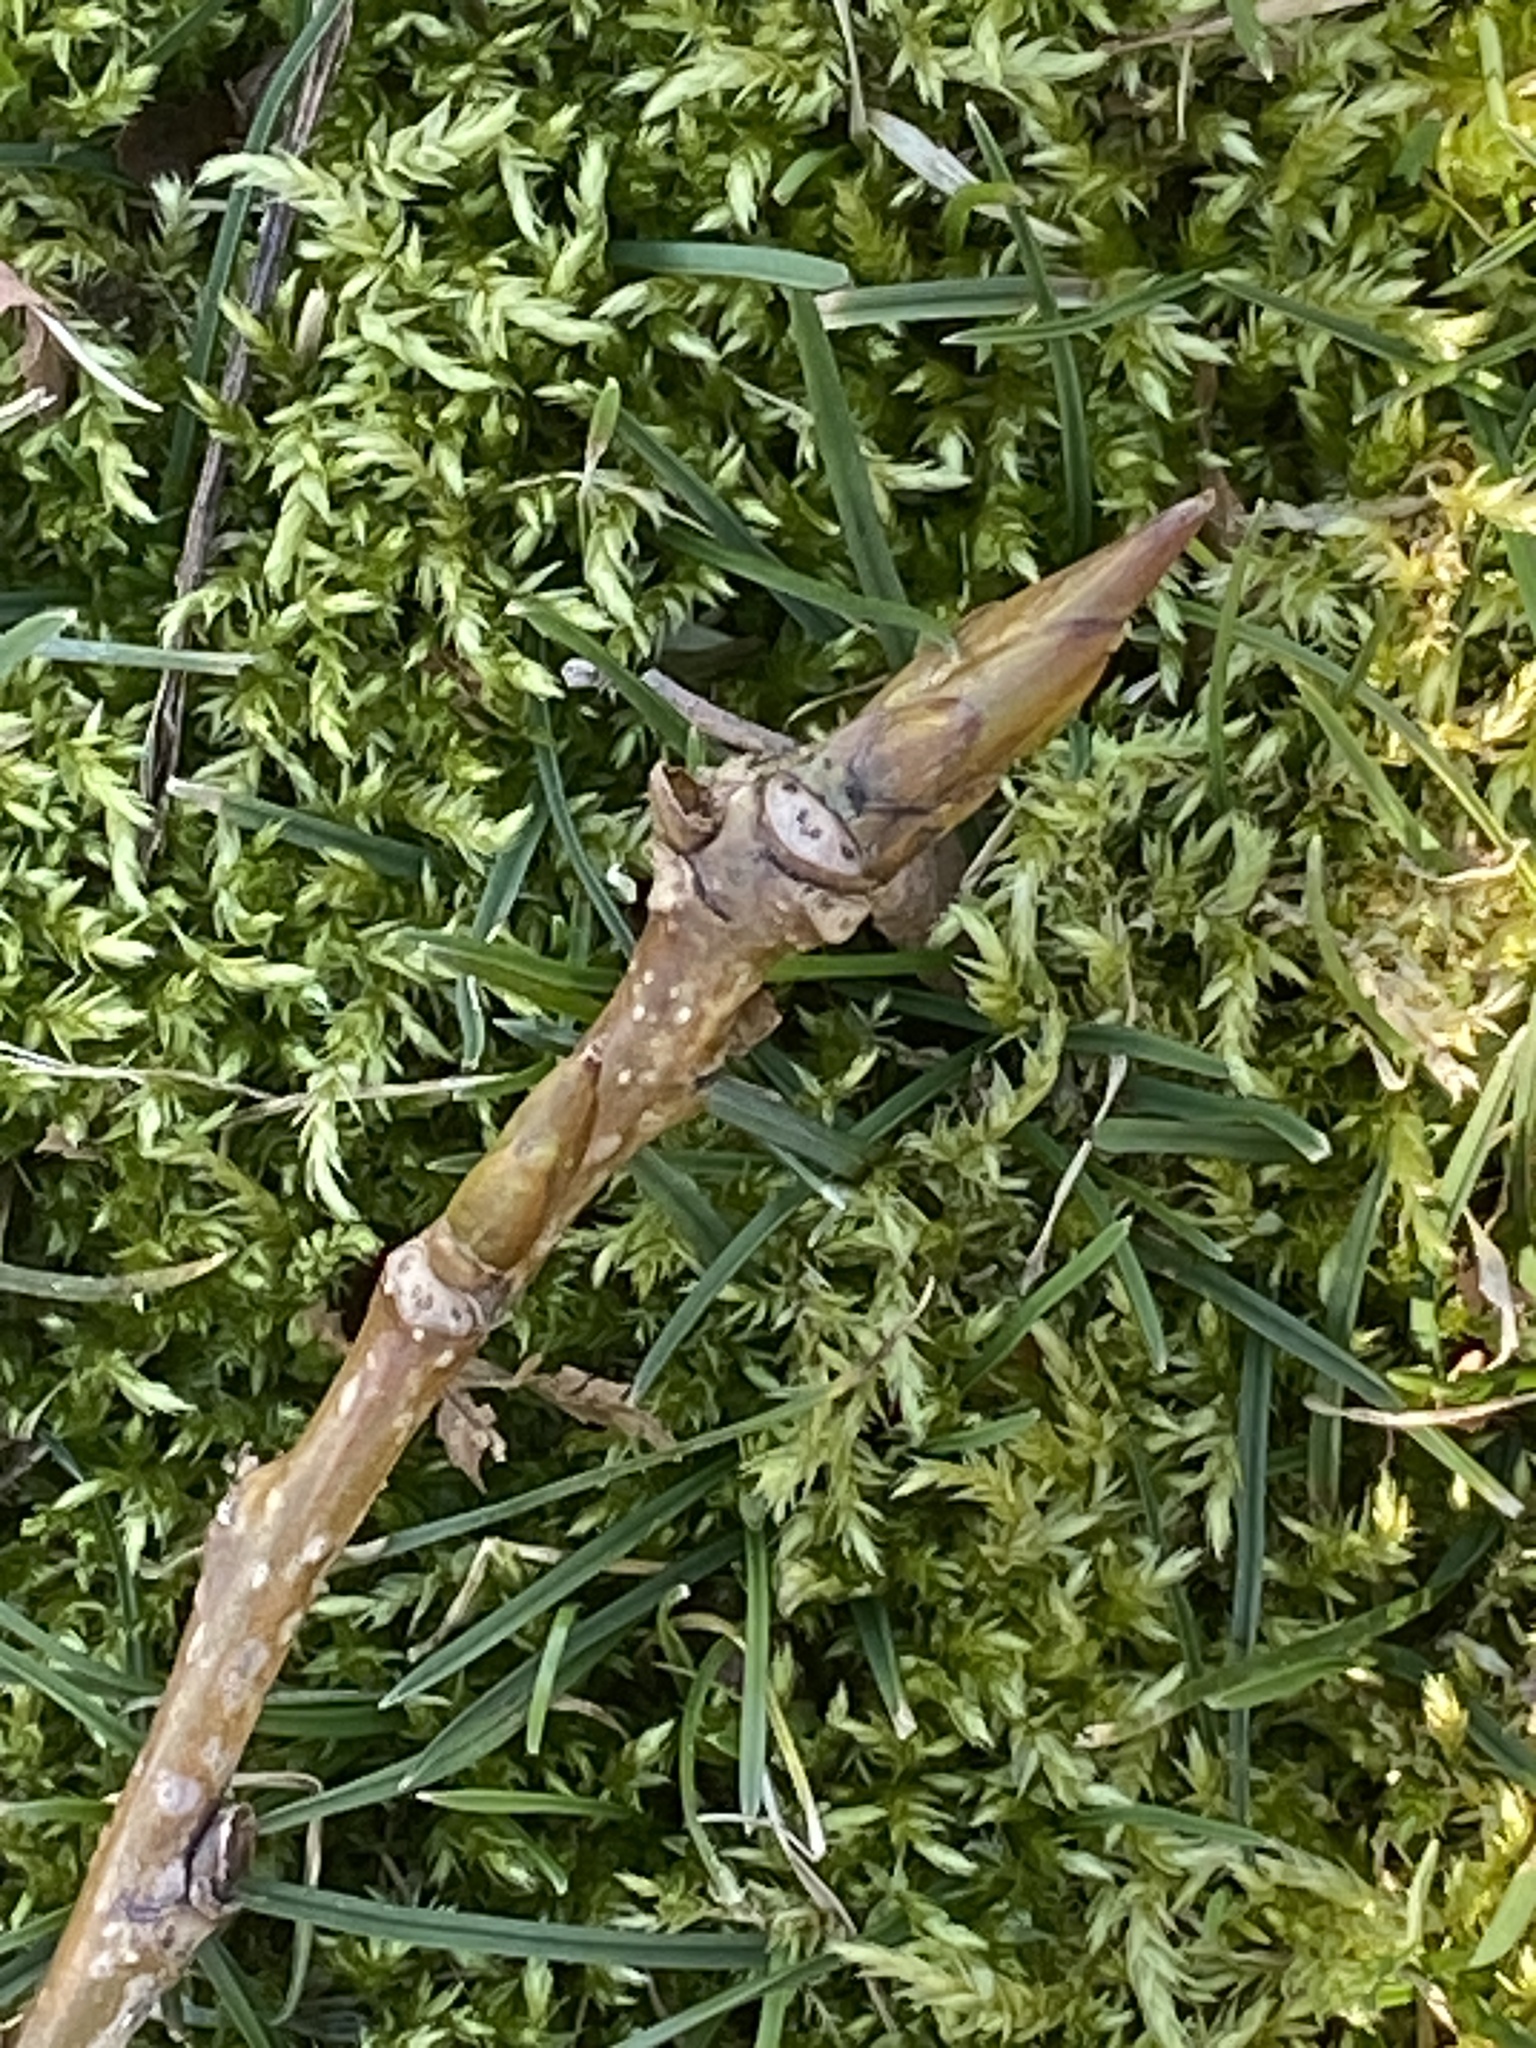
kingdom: Plantae
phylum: Tracheophyta
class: Magnoliopsida
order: Malpighiales
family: Salicaceae
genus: Populus
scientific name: Populus deltoides
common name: Eastern cottonwood
